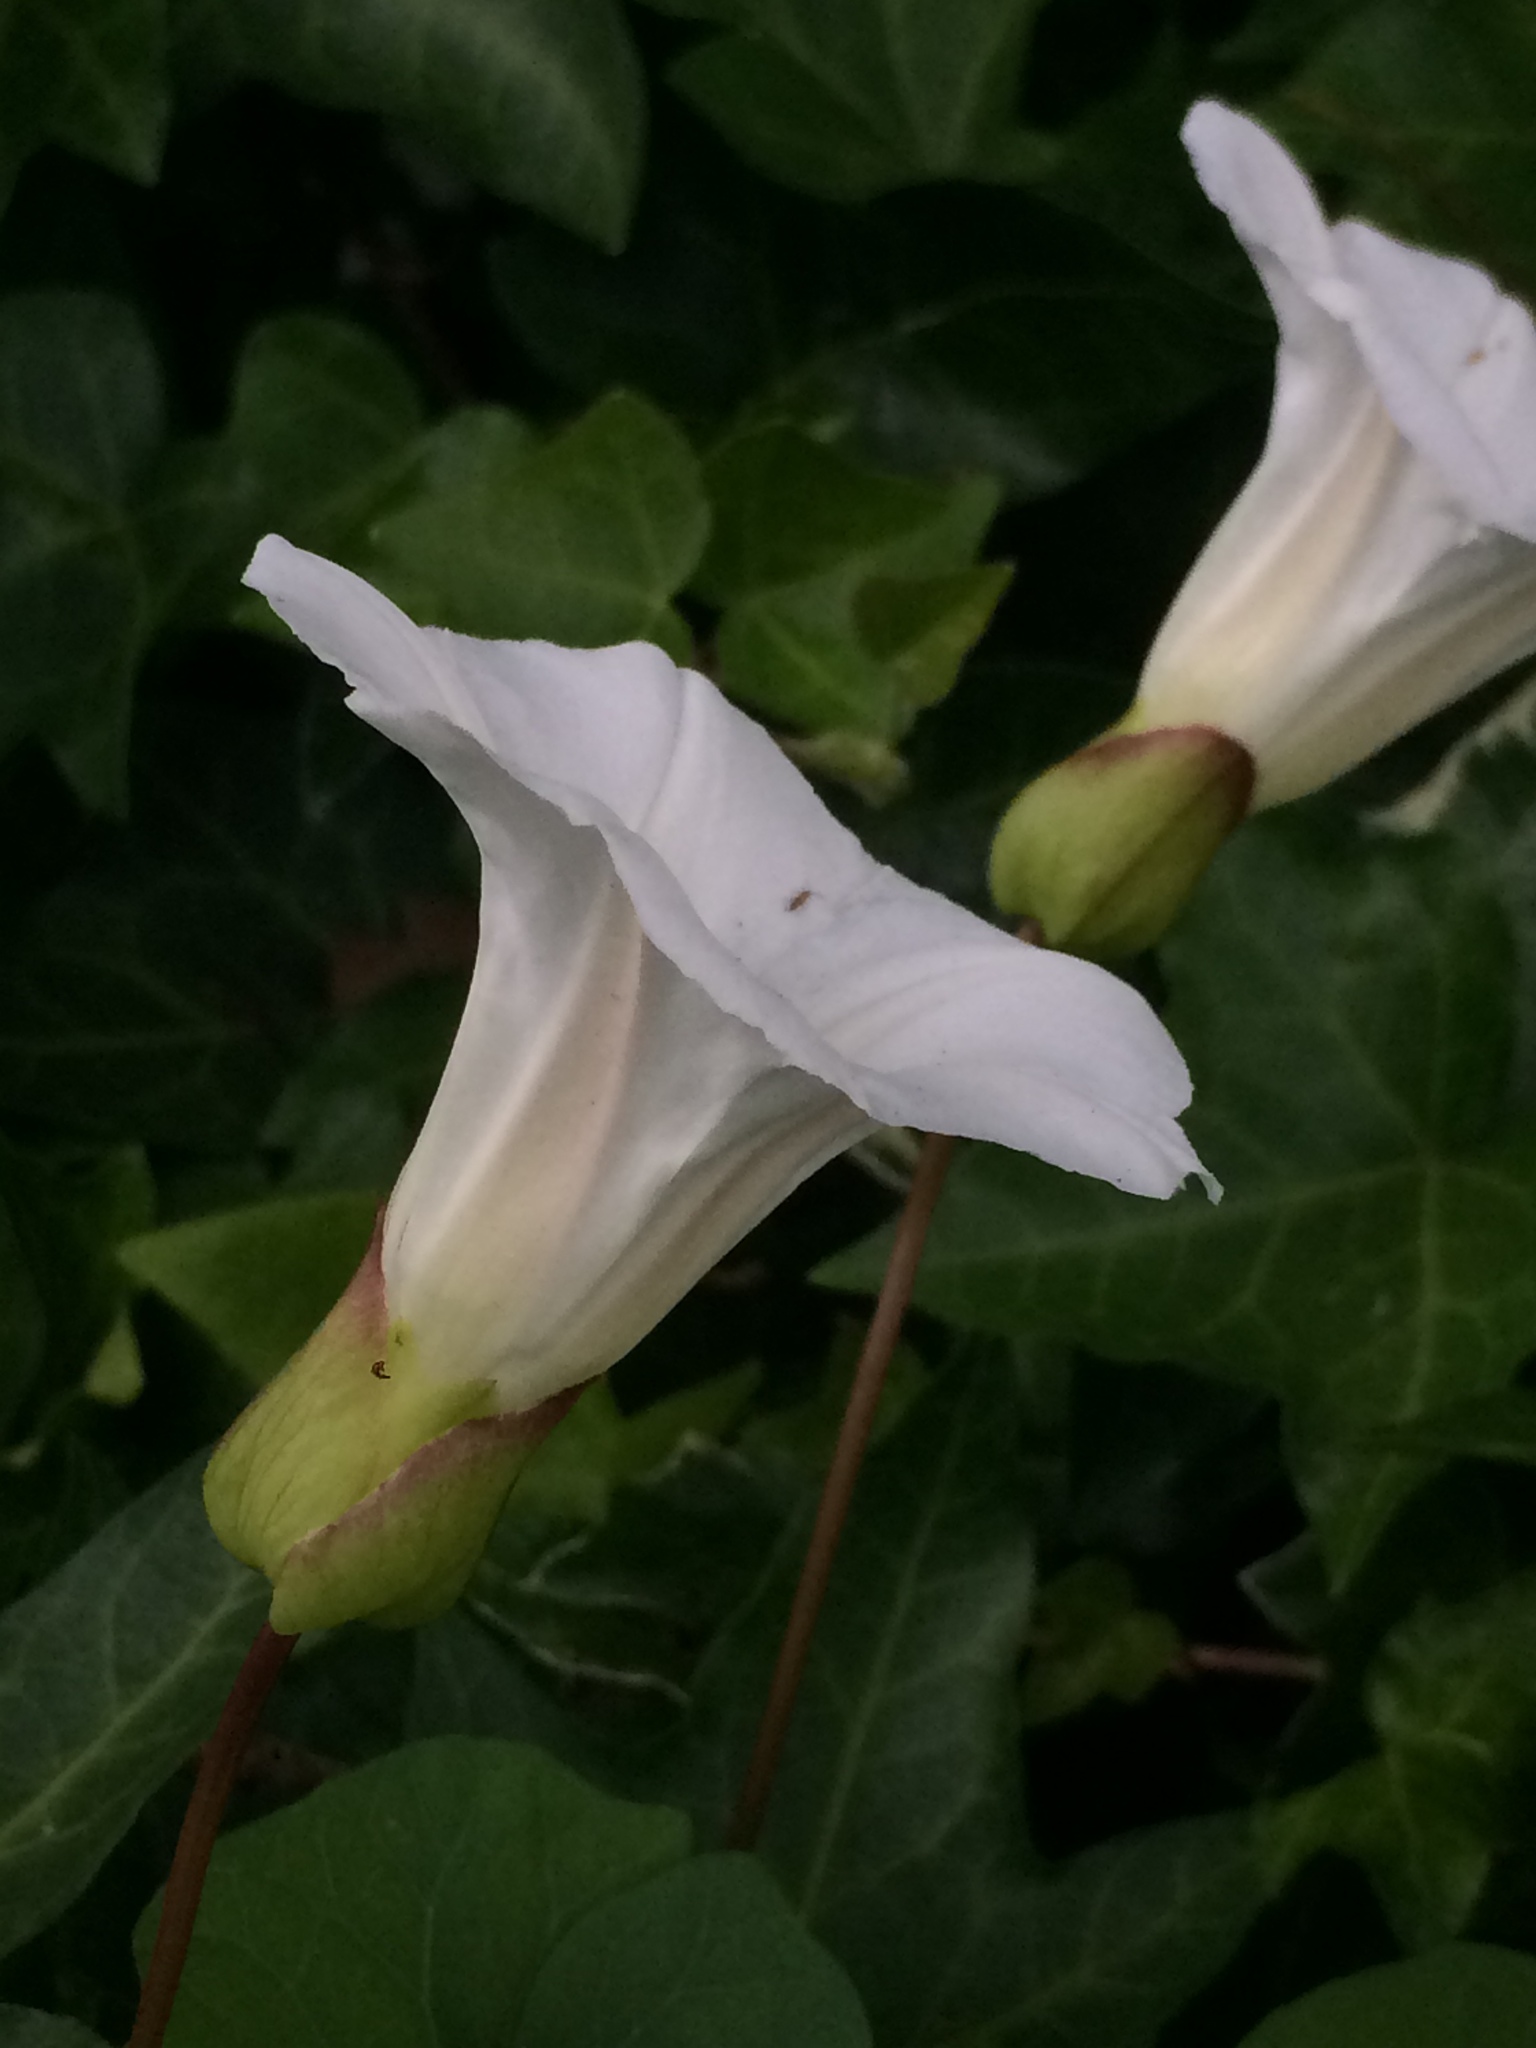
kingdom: Plantae
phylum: Tracheophyta
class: Magnoliopsida
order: Solanales
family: Convolvulaceae
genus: Calystegia
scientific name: Calystegia silvatica
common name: Large bindweed
